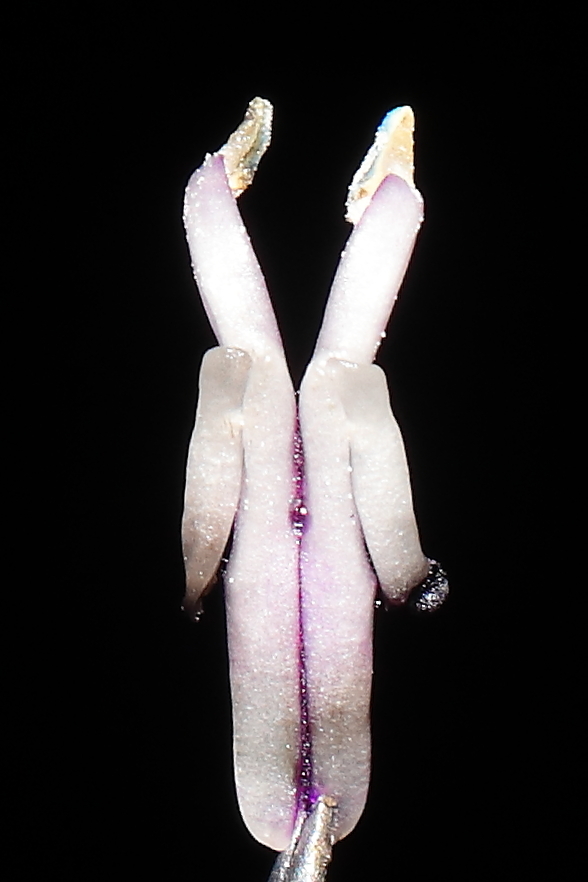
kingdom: Plantae
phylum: Tracheophyta
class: Magnoliopsida
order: Lamiales
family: Lamiaceae
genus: Salvia
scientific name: Salvia discolor
